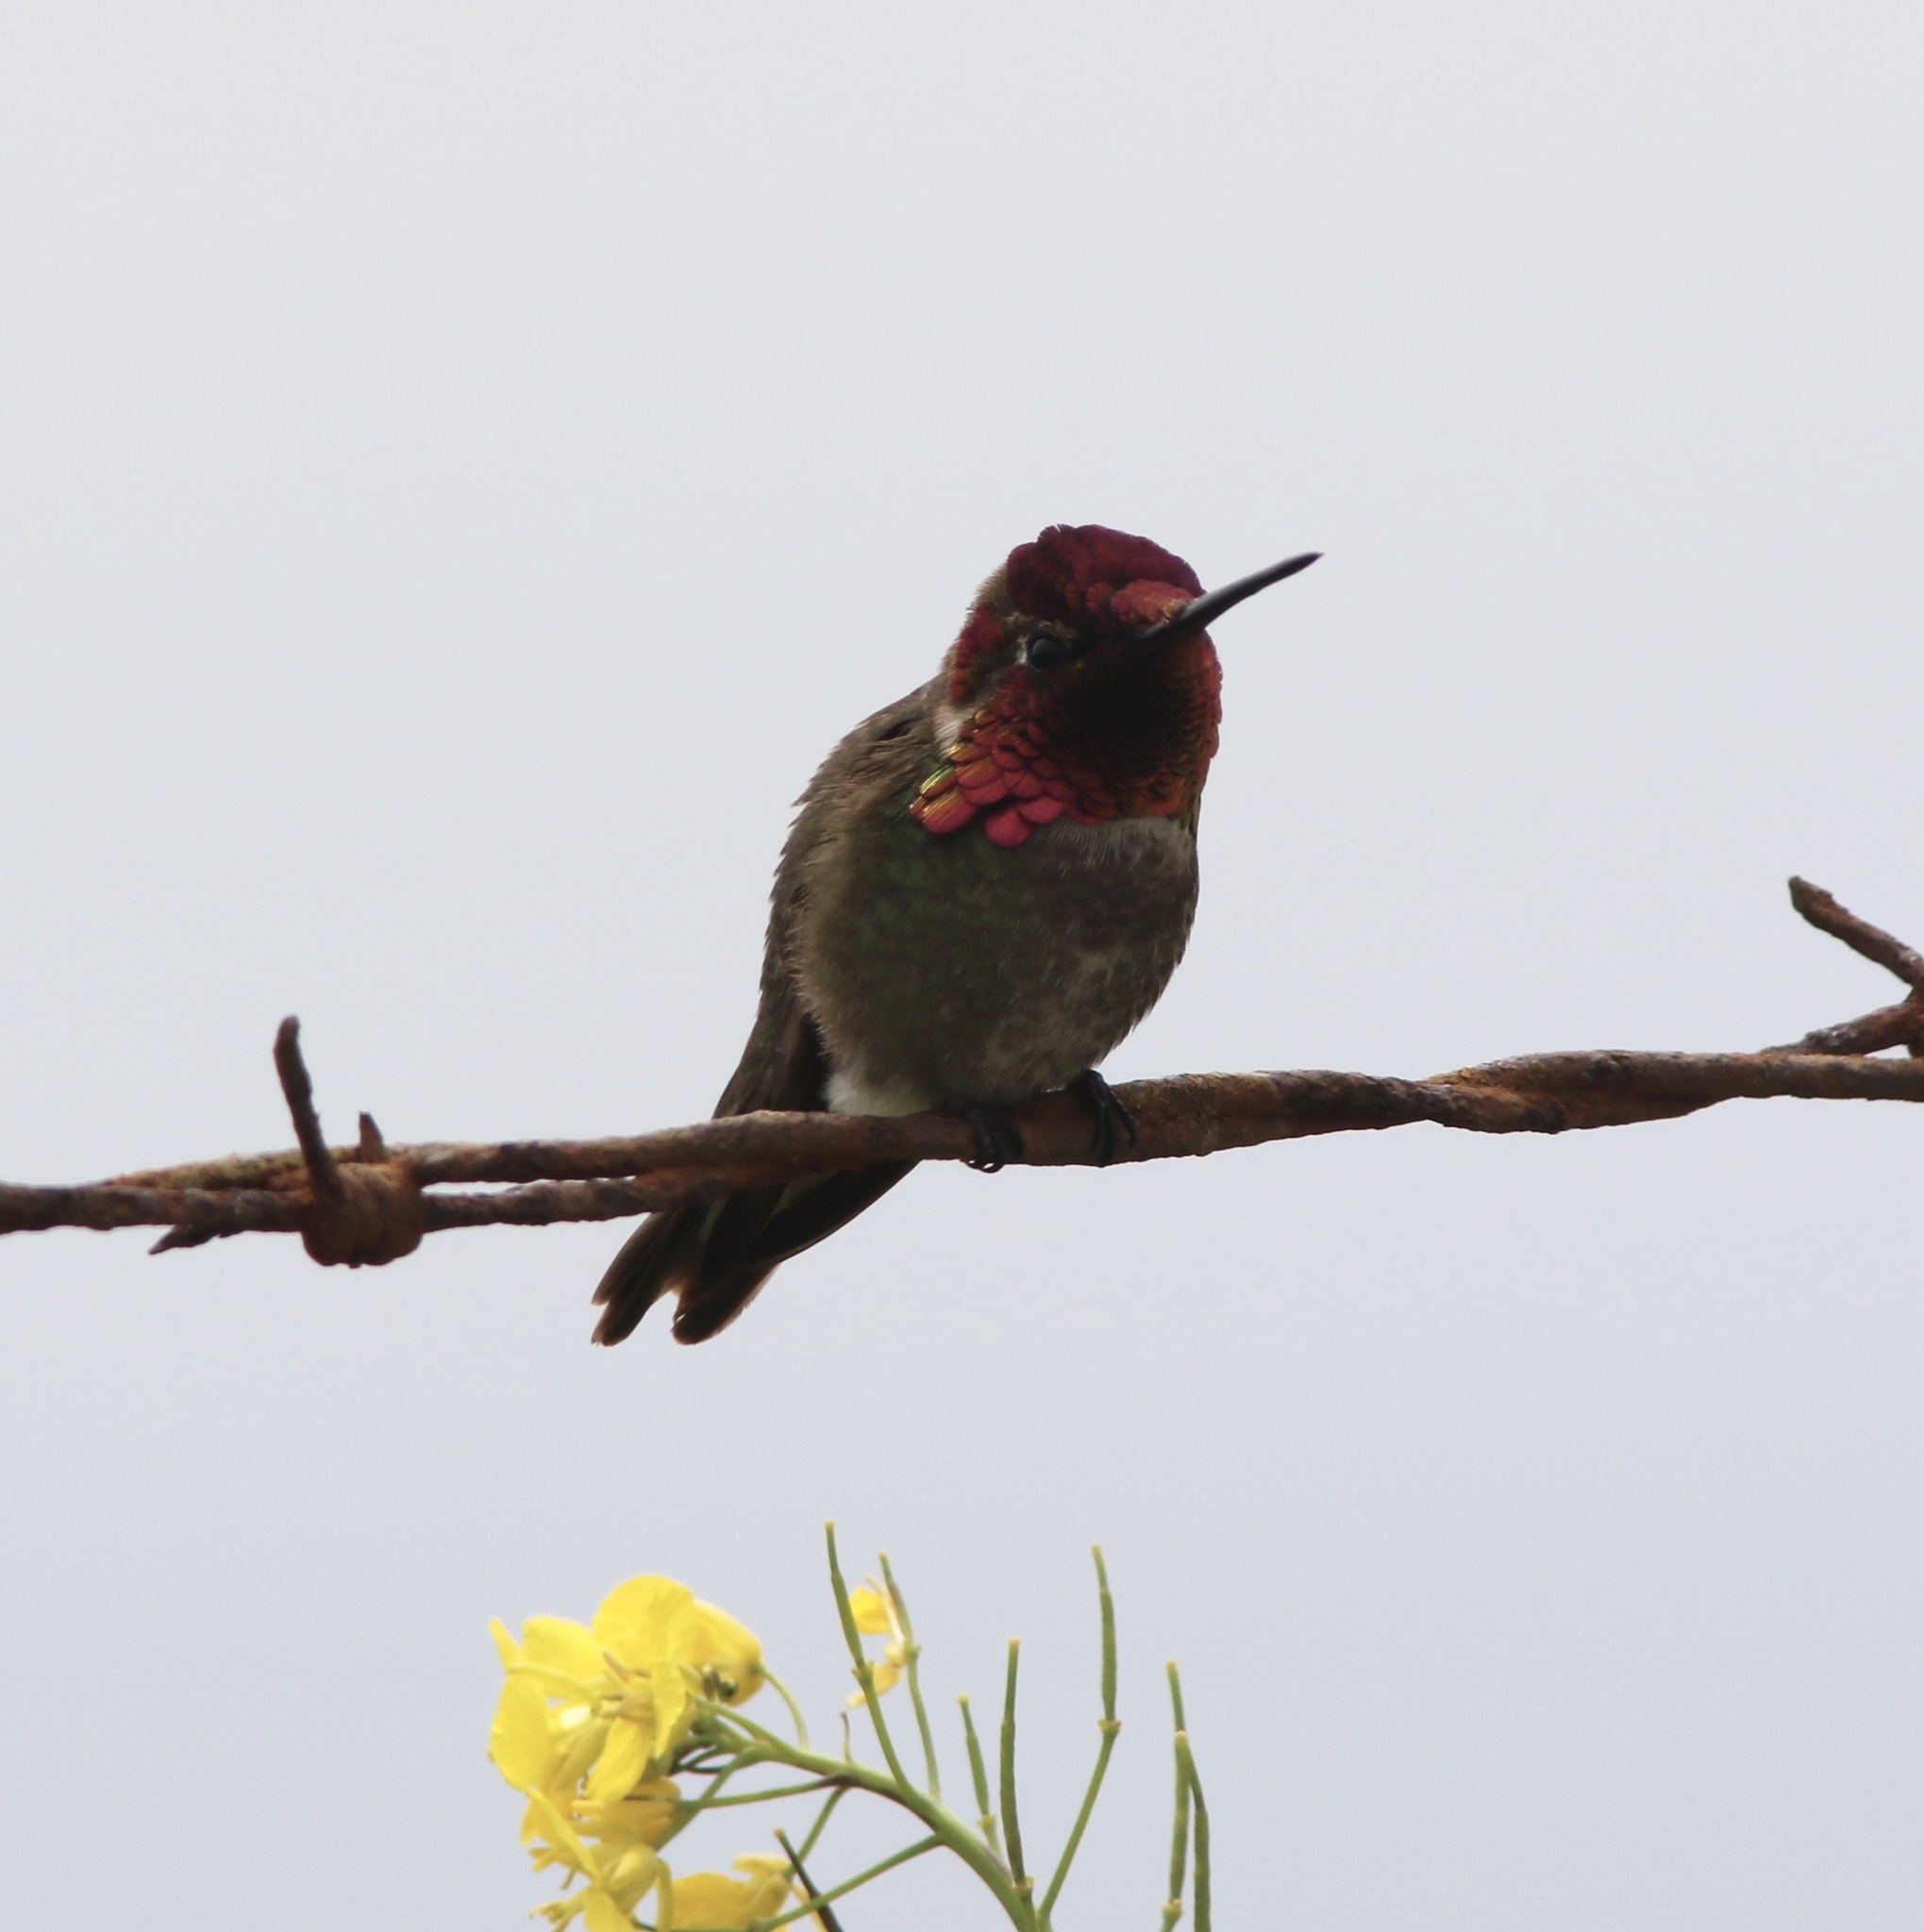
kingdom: Animalia
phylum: Chordata
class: Aves
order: Apodiformes
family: Trochilidae
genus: Calypte
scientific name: Calypte anna
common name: Anna's hummingbird
